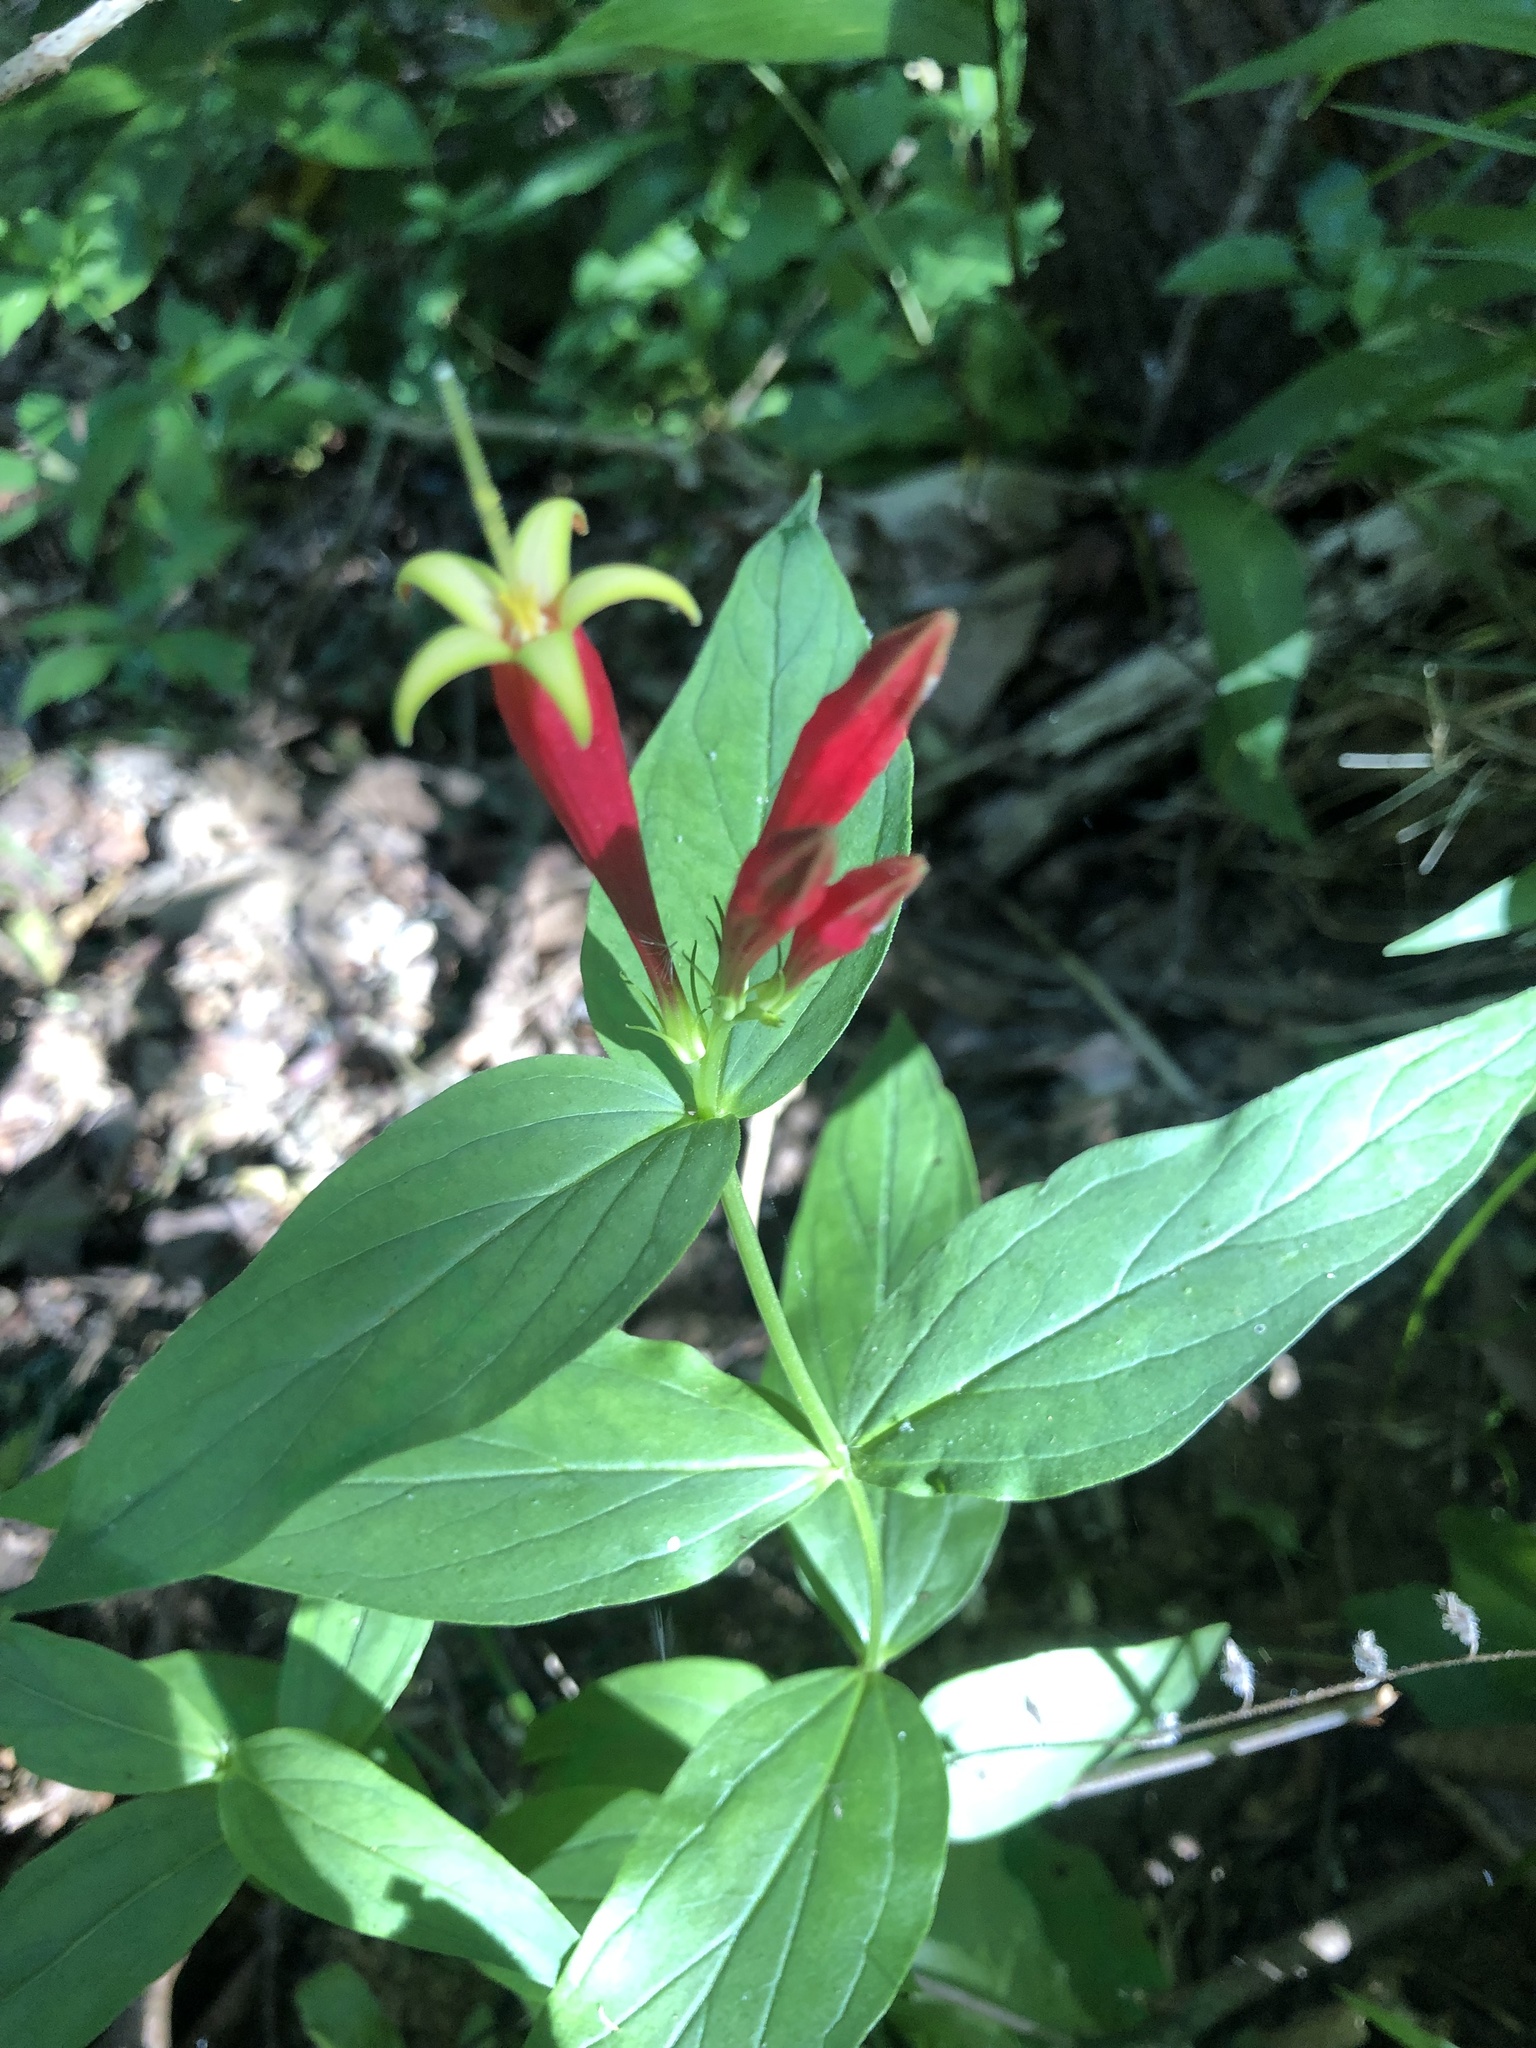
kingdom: Plantae
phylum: Tracheophyta
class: Magnoliopsida
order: Gentianales
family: Loganiaceae
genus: Spigelia
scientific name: Spigelia marilandica
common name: Indian-pink
